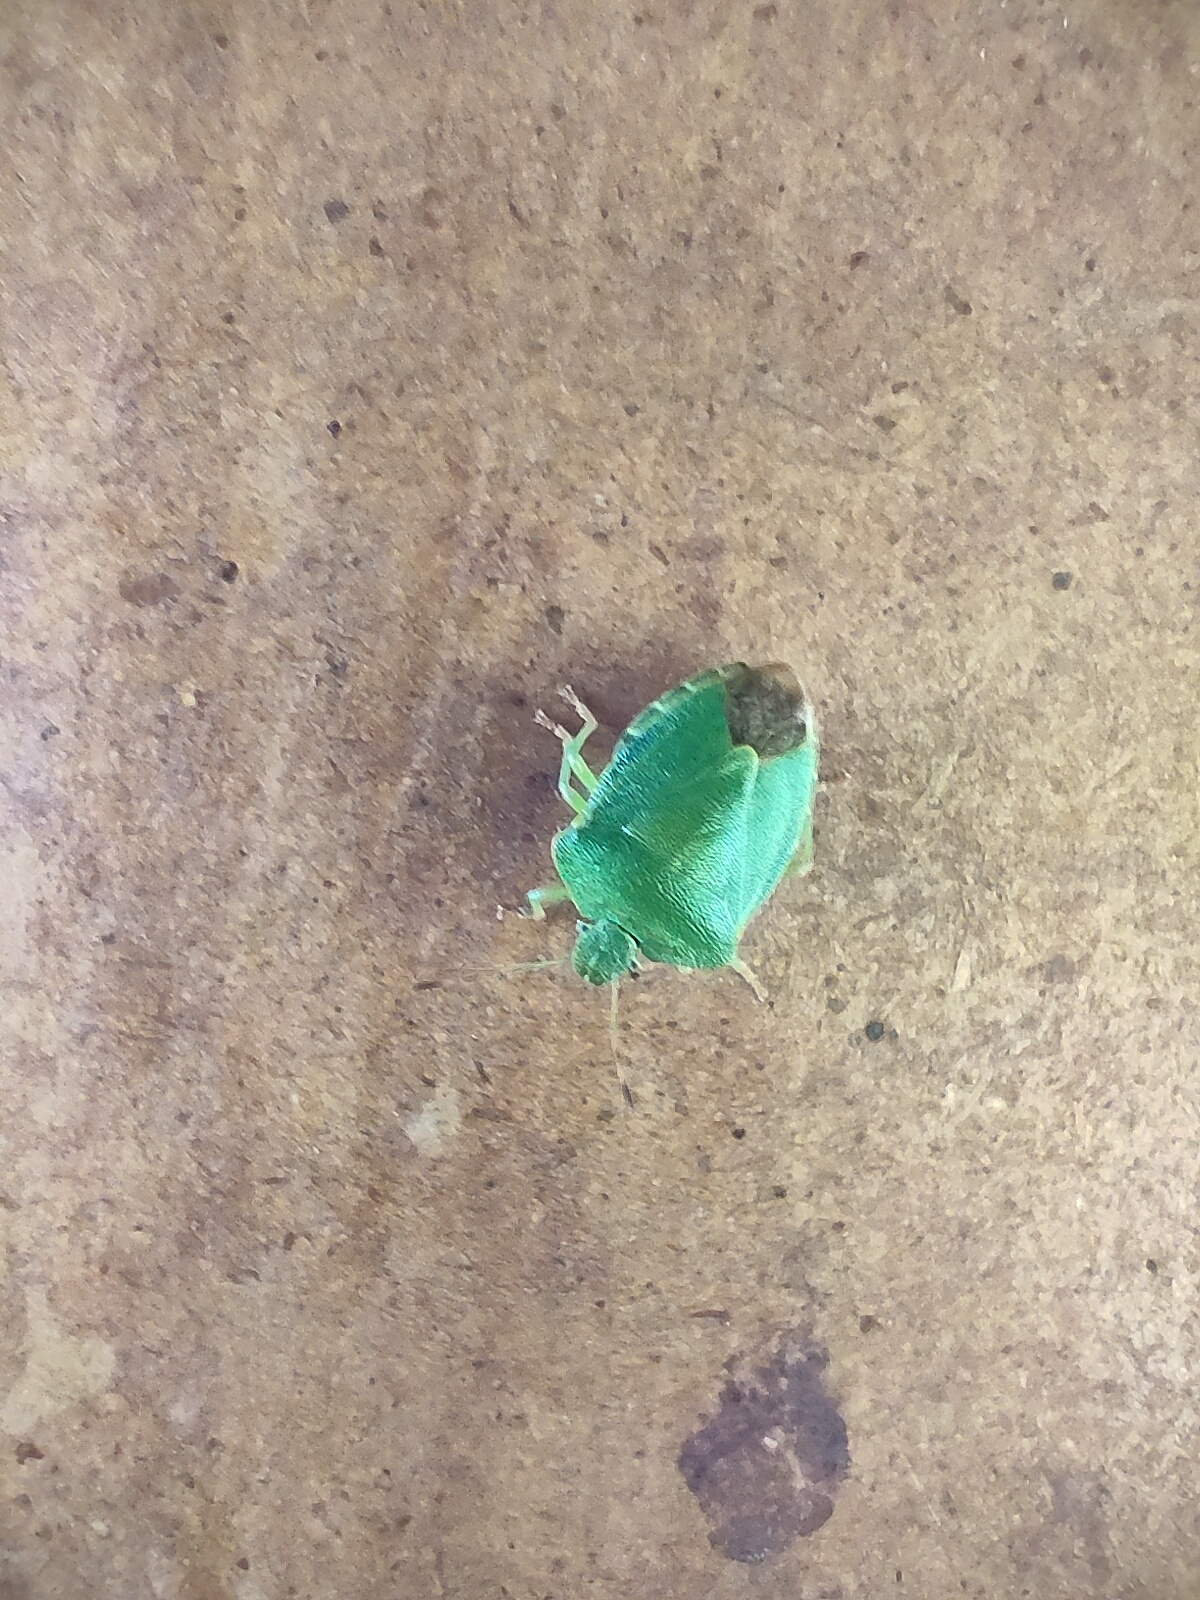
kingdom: Animalia
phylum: Arthropoda
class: Insecta
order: Hemiptera
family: Pentatomidae
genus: Palomena
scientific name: Palomena prasina
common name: Green shieldbug
